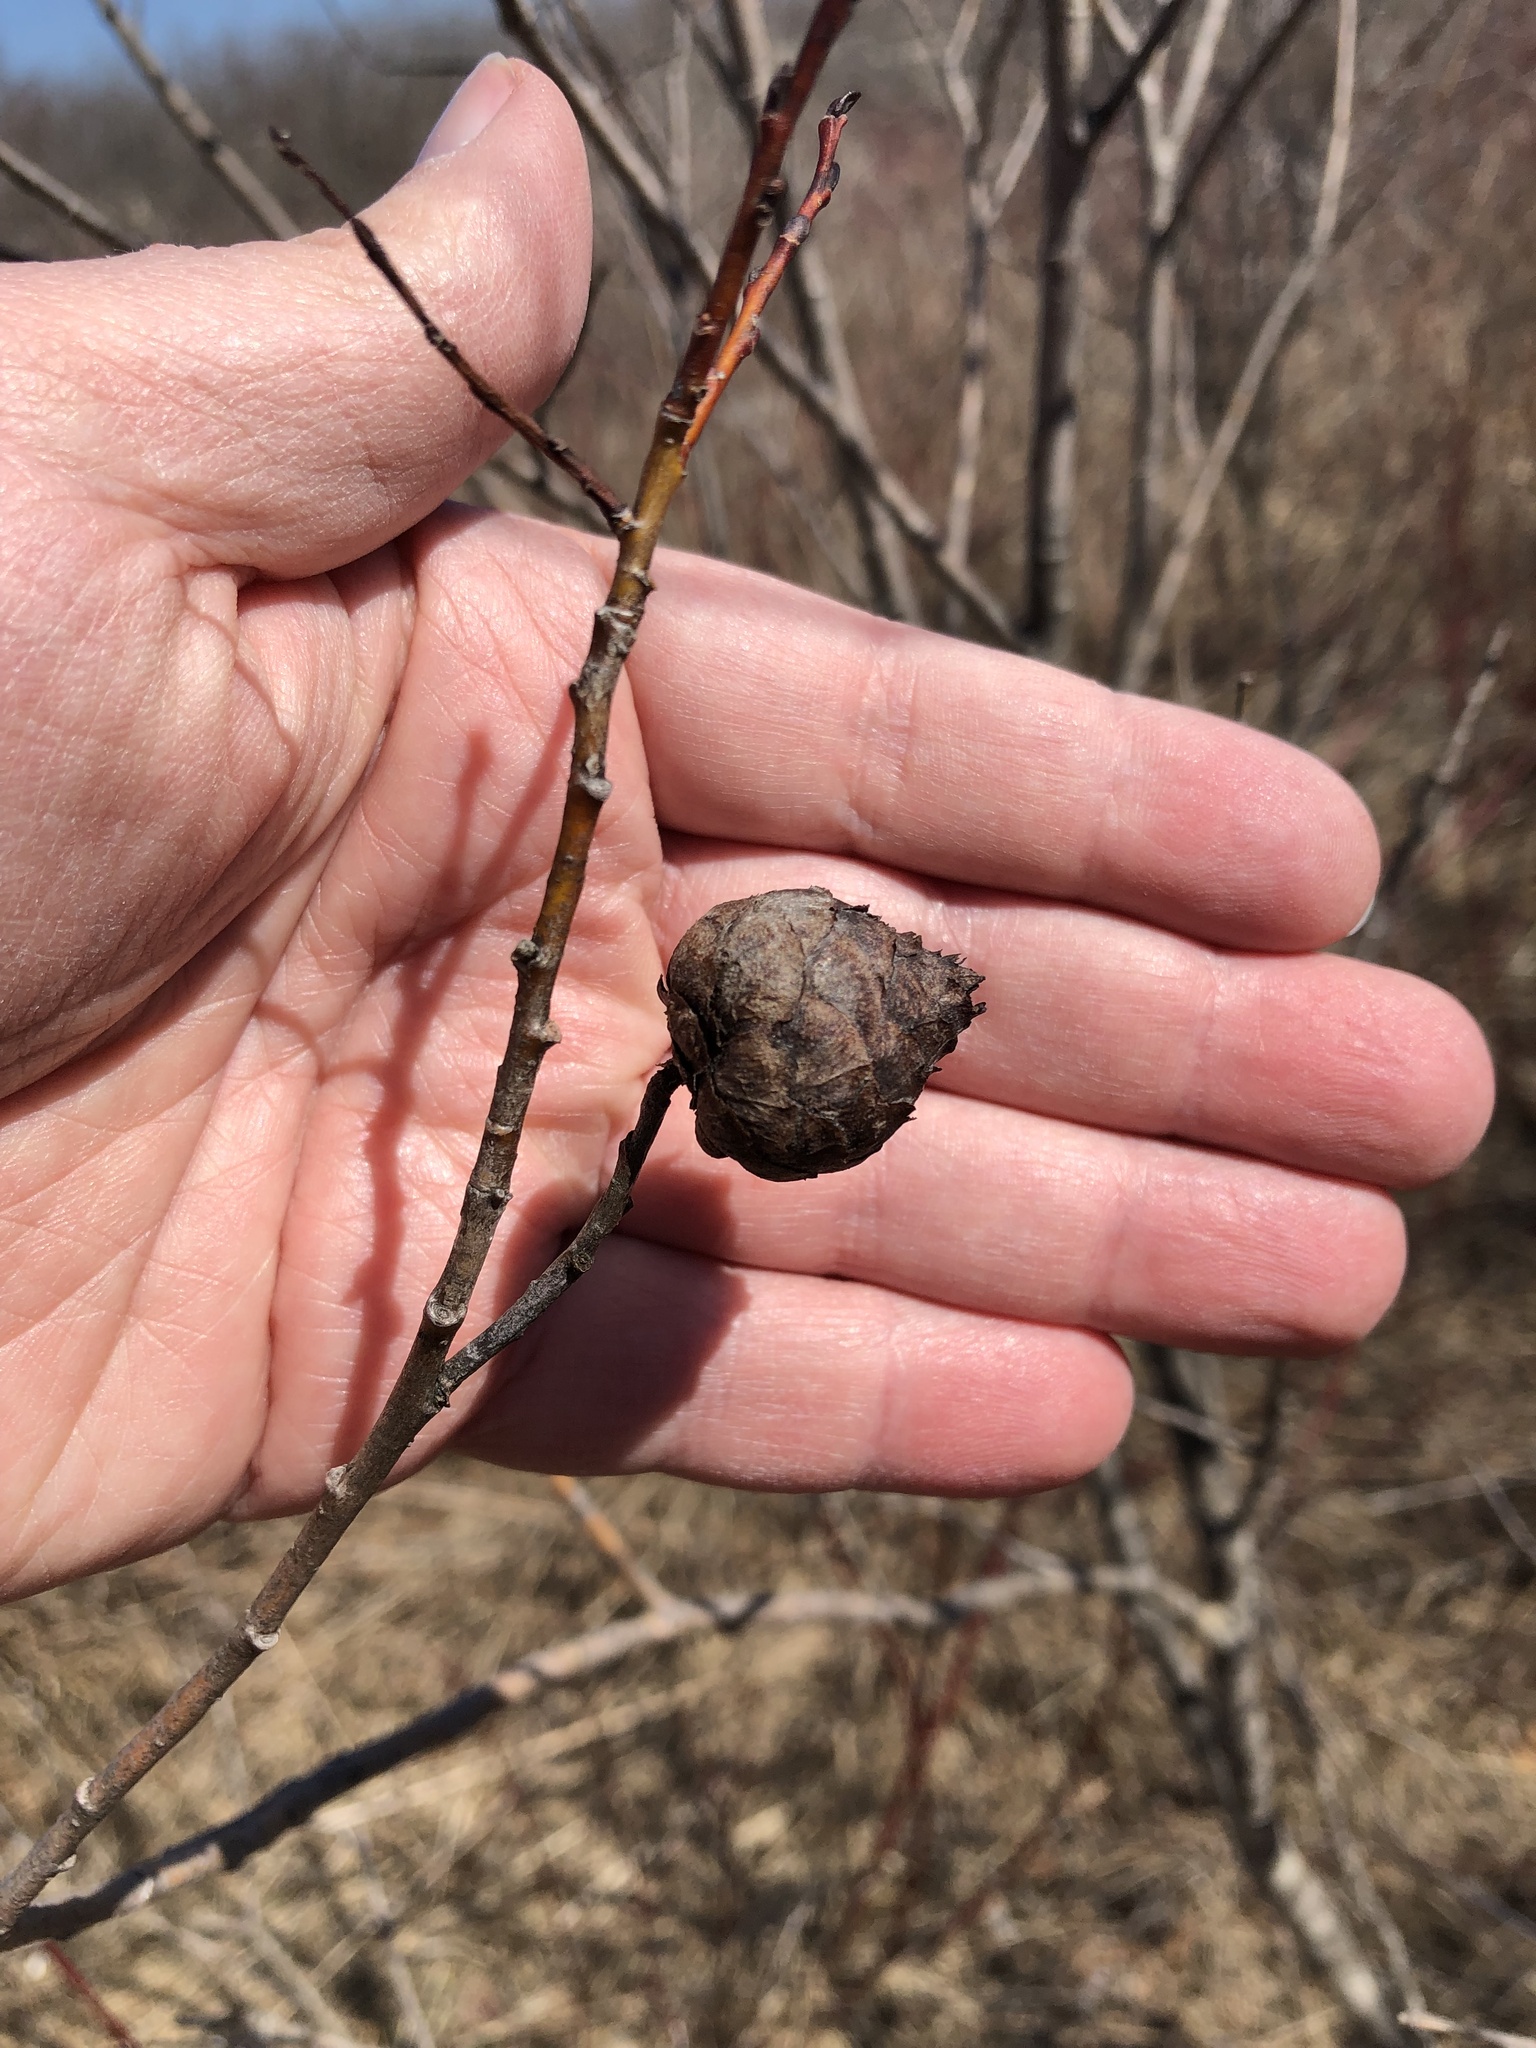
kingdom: Animalia
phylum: Arthropoda
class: Insecta
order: Diptera
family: Cecidomyiidae
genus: Rabdophaga
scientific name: Rabdophaga strobiloides
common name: Willow pinecone gall midge
